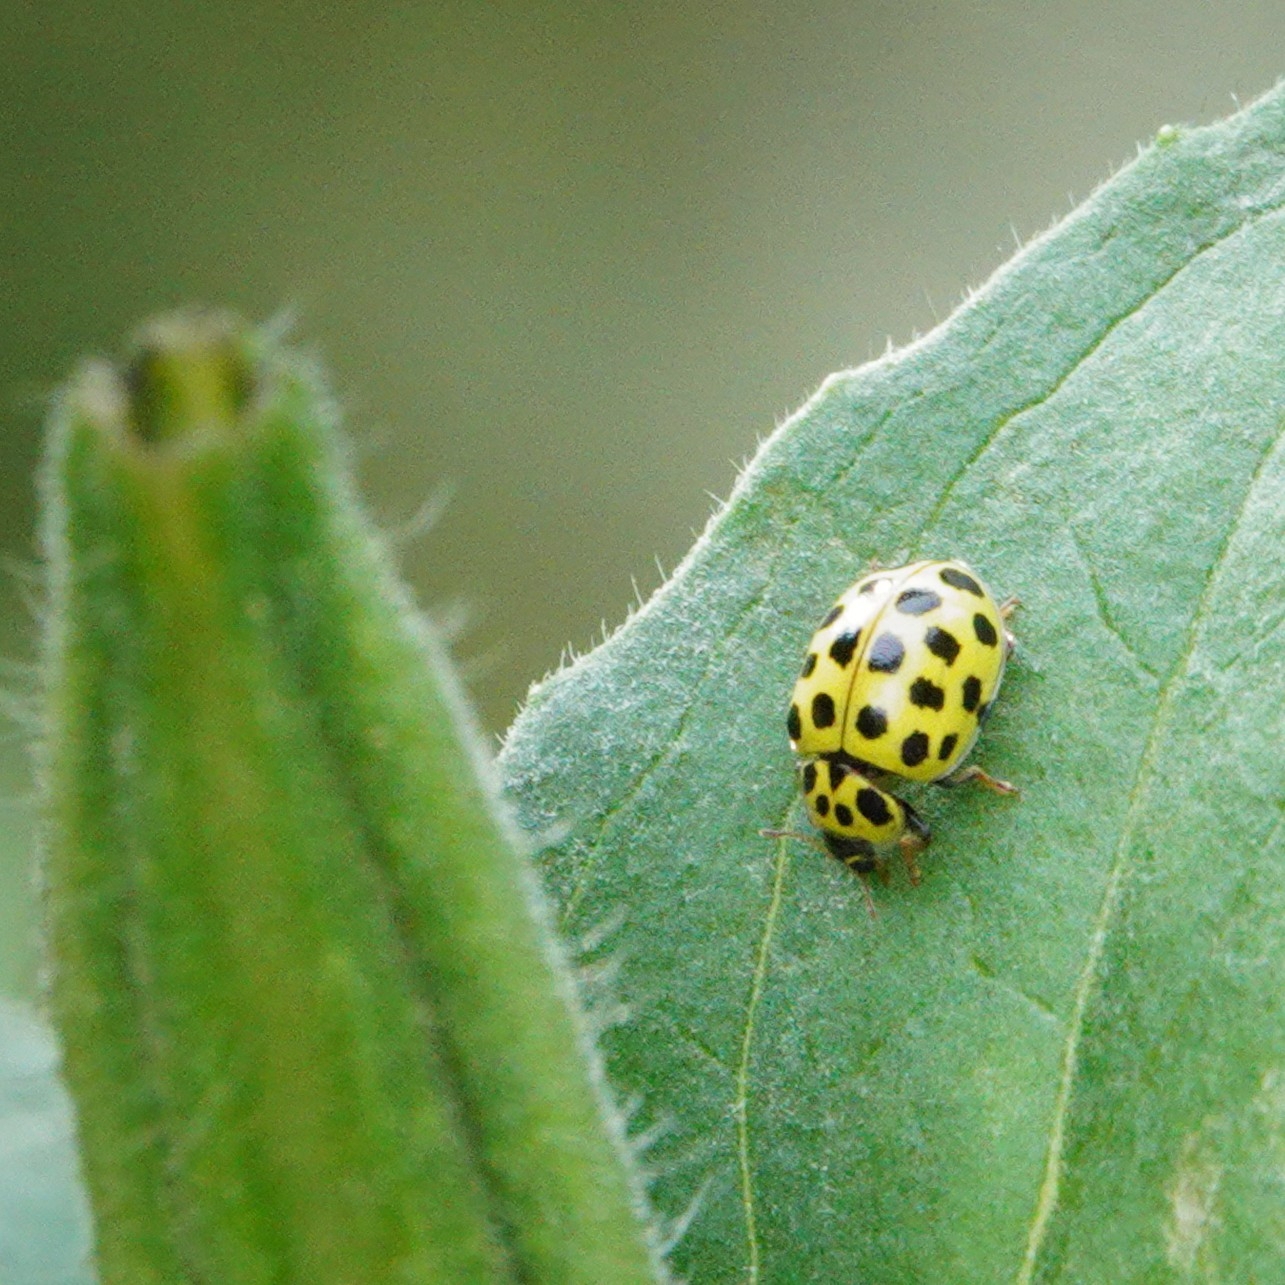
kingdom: Animalia
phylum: Arthropoda
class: Insecta
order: Coleoptera
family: Coccinellidae
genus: Psyllobora
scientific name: Psyllobora vigintiduopunctata
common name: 22-spot ladybird
